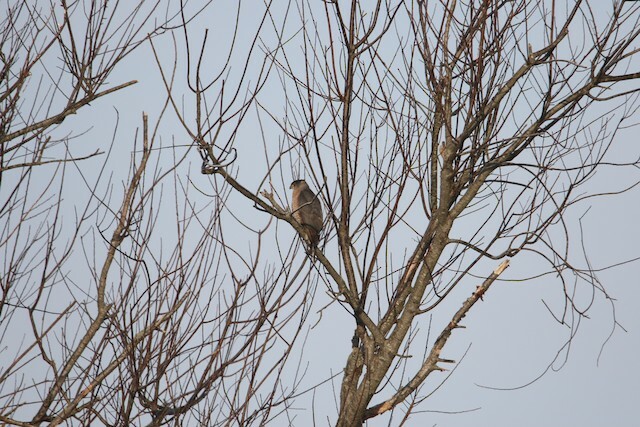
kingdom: Animalia
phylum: Chordata
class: Aves
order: Accipitriformes
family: Accipitridae
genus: Accipiter
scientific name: Accipiter cooperii
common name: Cooper's hawk
